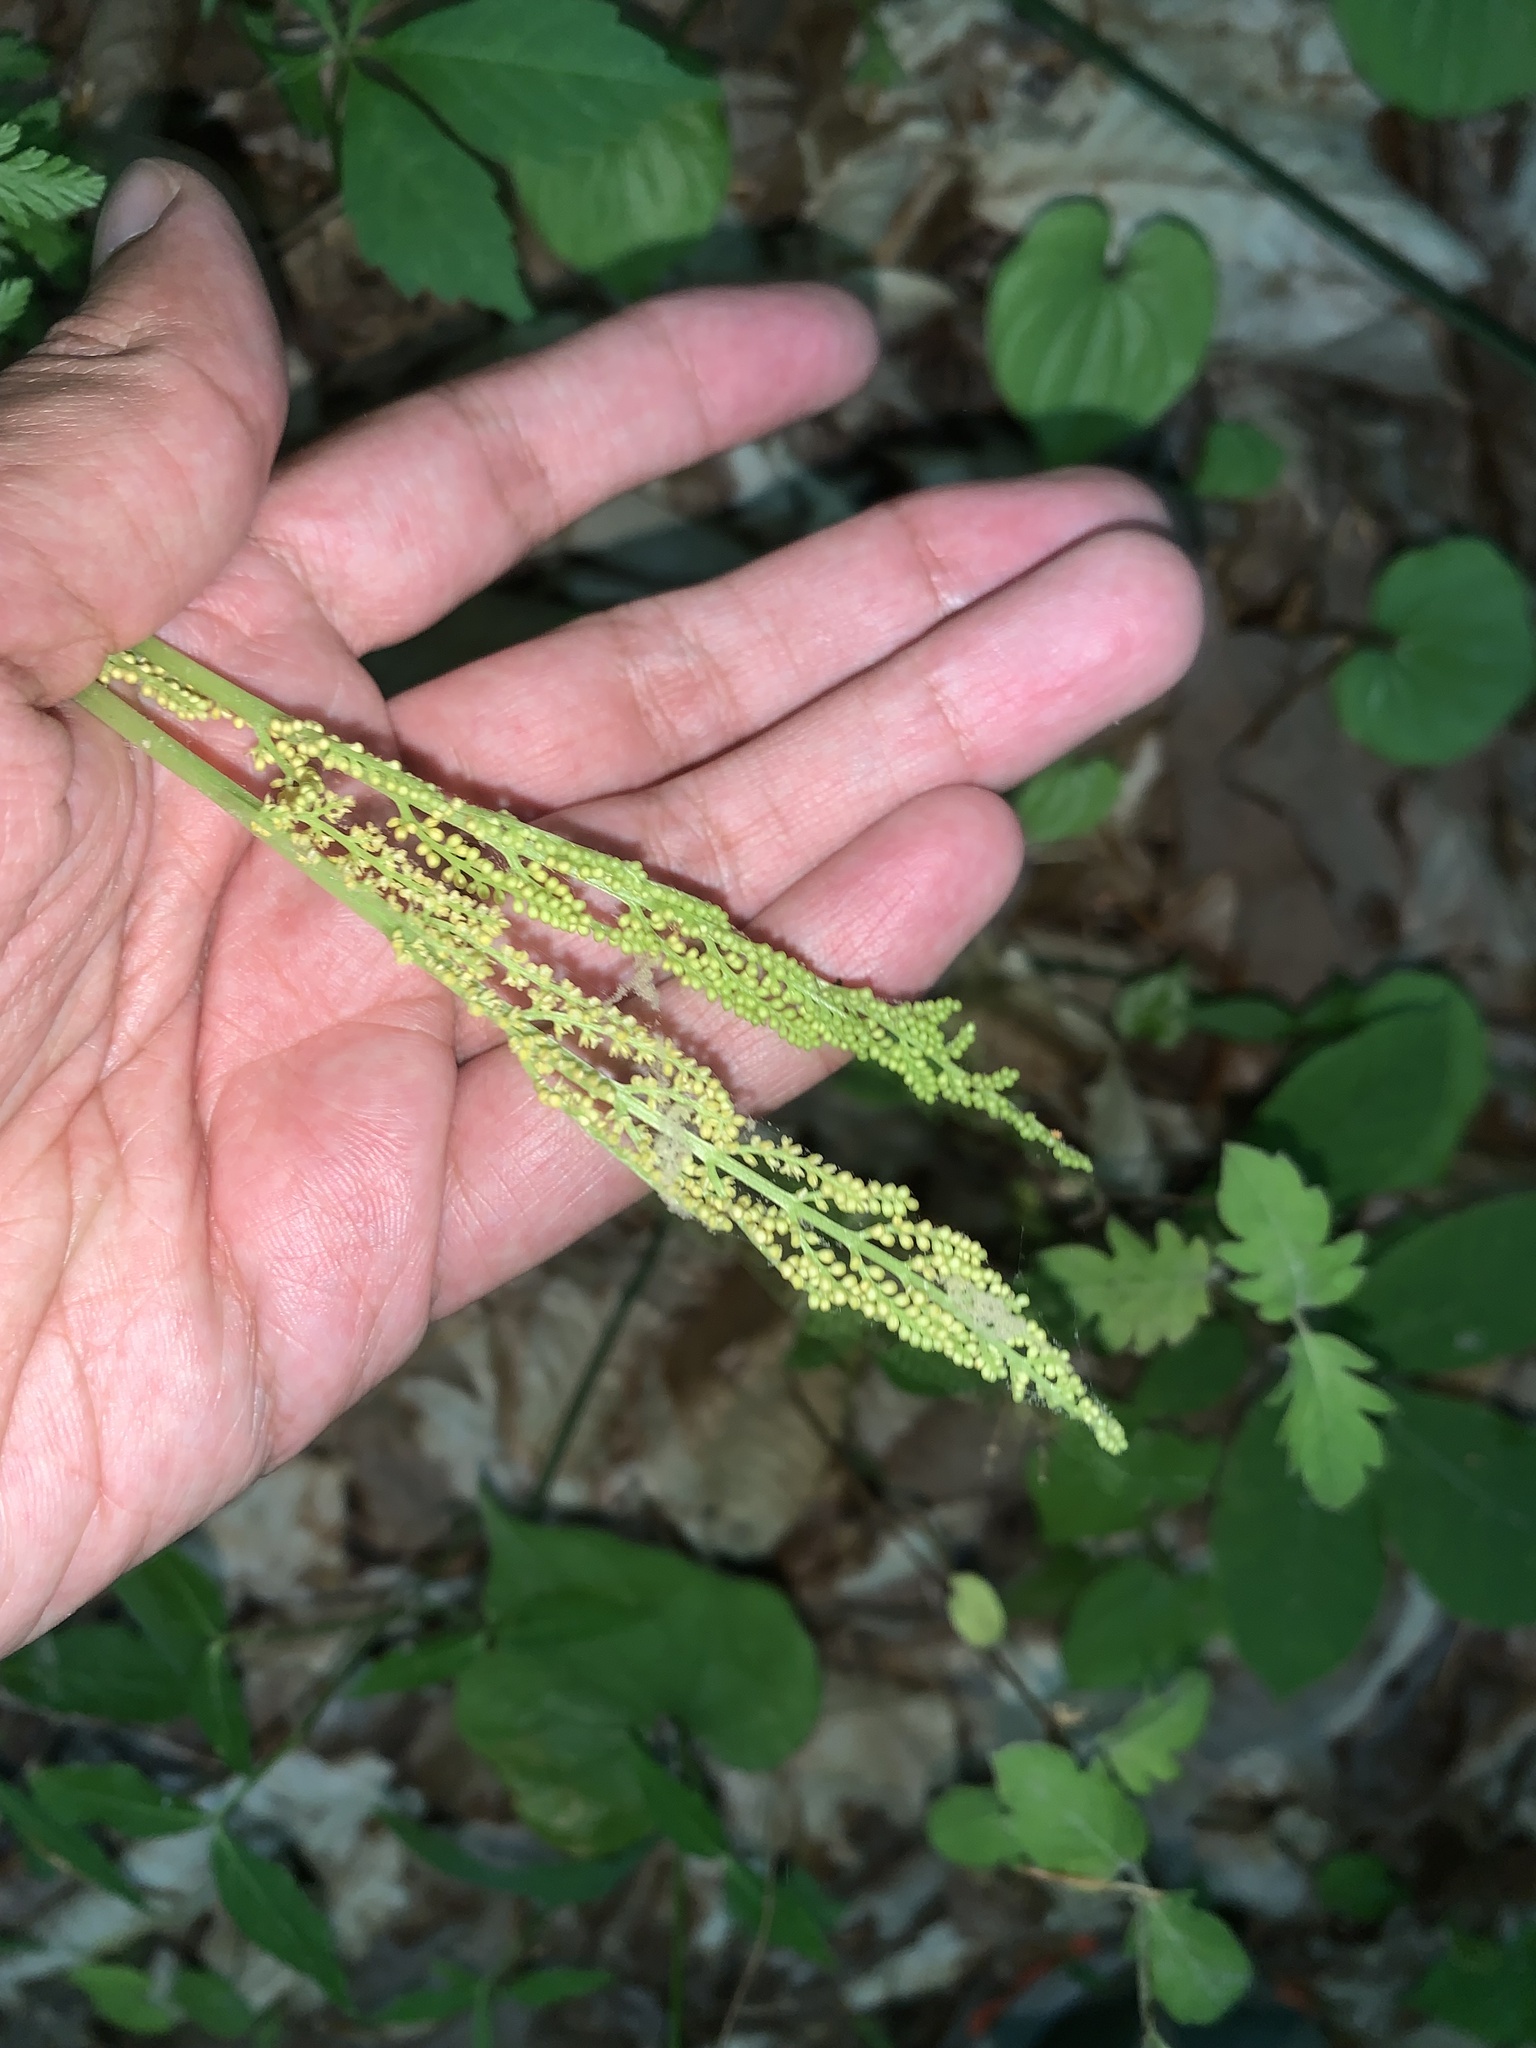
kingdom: Plantae
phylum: Tracheophyta
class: Polypodiopsida
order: Ophioglossales
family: Ophioglossaceae
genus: Botrypus
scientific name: Botrypus virginianus
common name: Common grapefern
